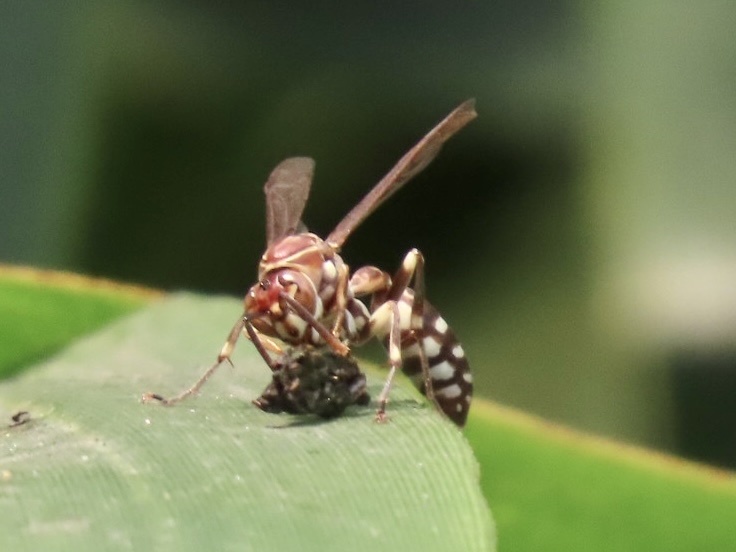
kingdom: Animalia
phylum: Arthropoda
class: Insecta
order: Hymenoptera
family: Vespidae
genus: Parapolybia
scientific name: Parapolybia nodosa
